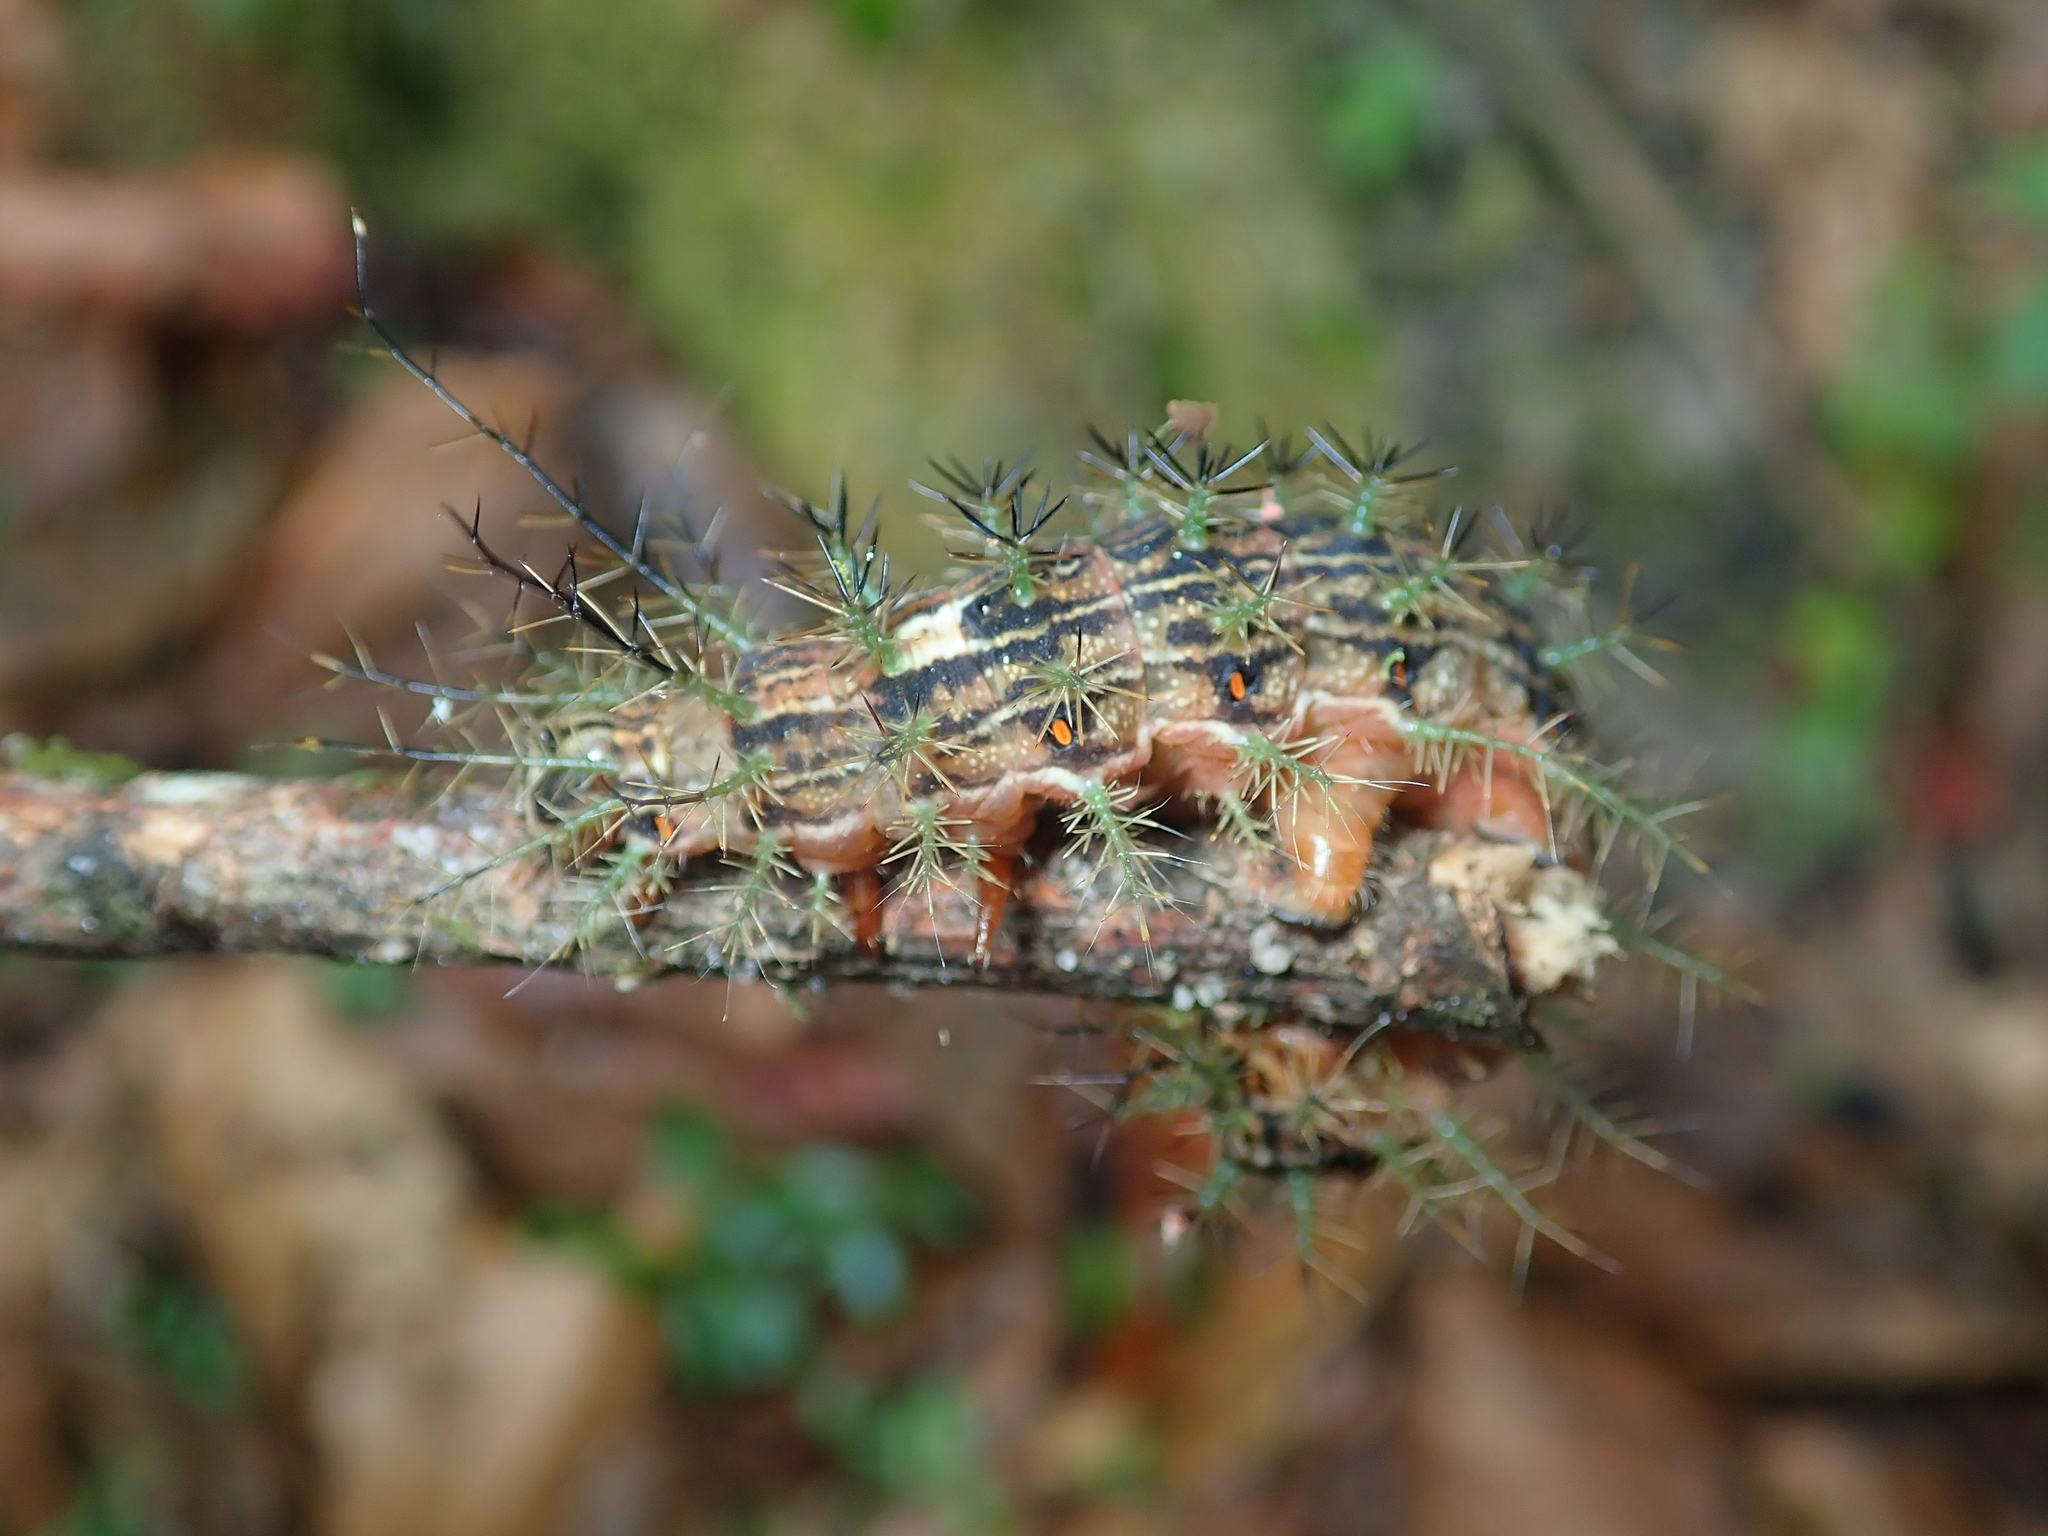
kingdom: Animalia
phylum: Arthropoda
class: Insecta
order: Lepidoptera
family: Saturniidae
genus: Lonomia
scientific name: Lonomia obliqua
